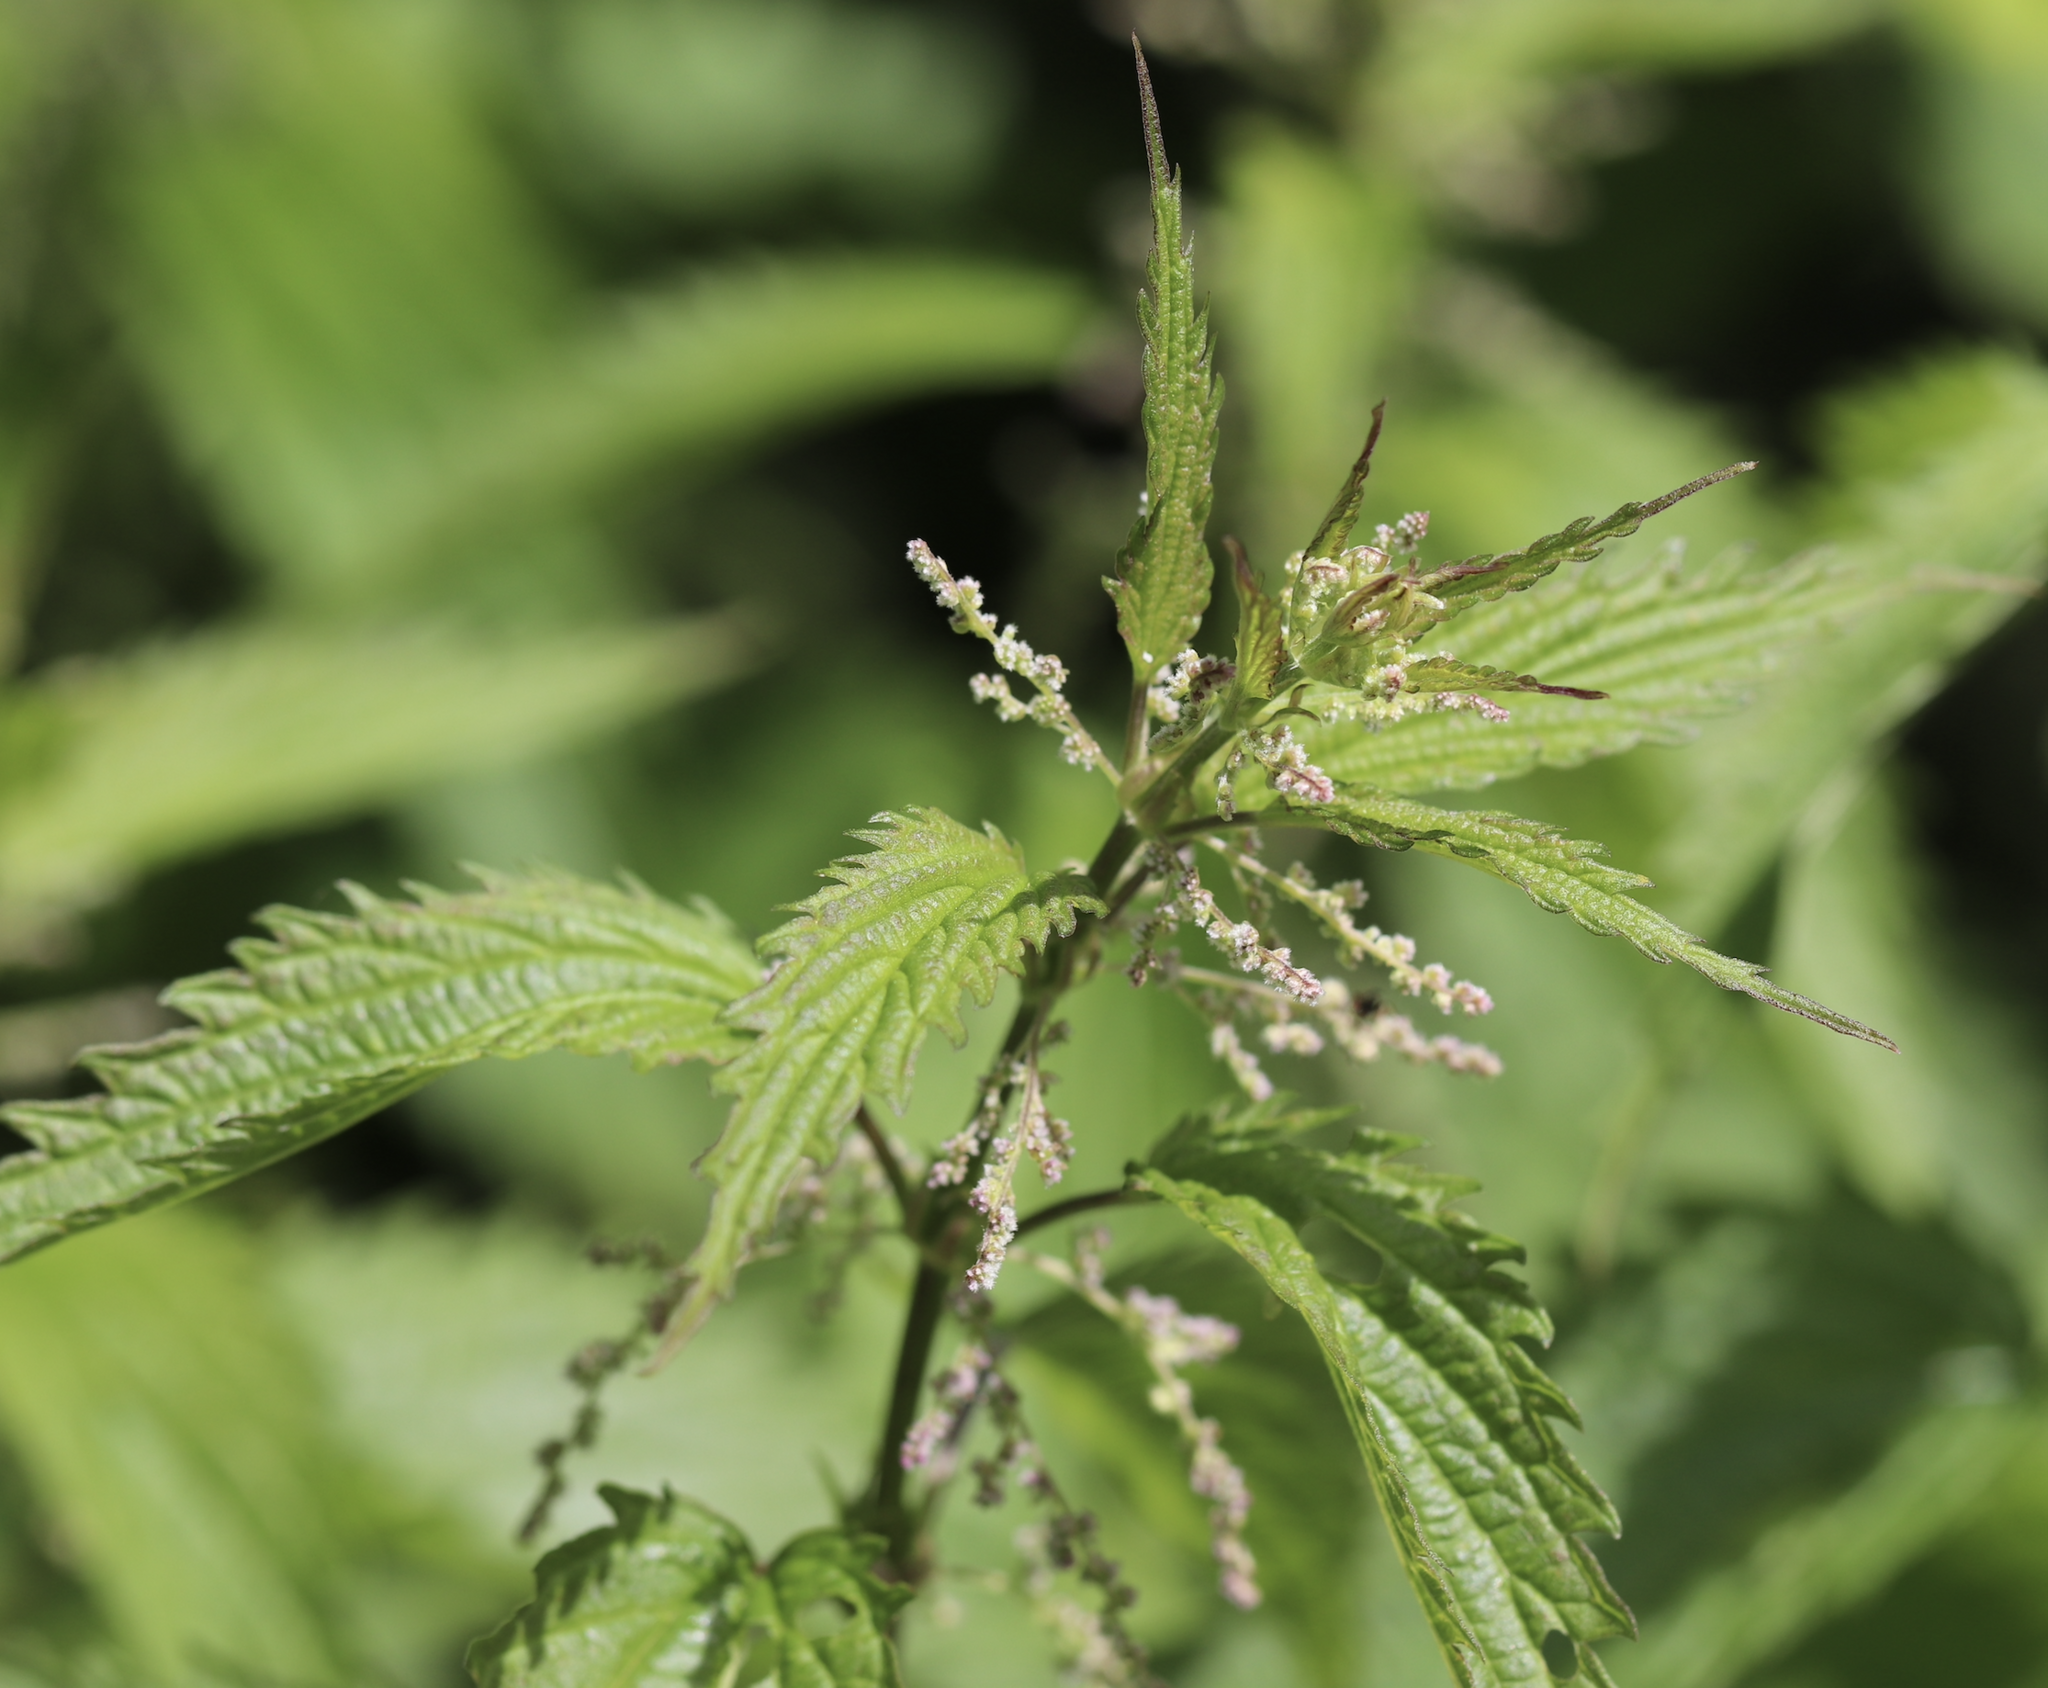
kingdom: Plantae
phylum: Tracheophyta
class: Magnoliopsida
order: Rosales
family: Urticaceae
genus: Urtica
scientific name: Urtica gracilis
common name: Slender stinging nettle
